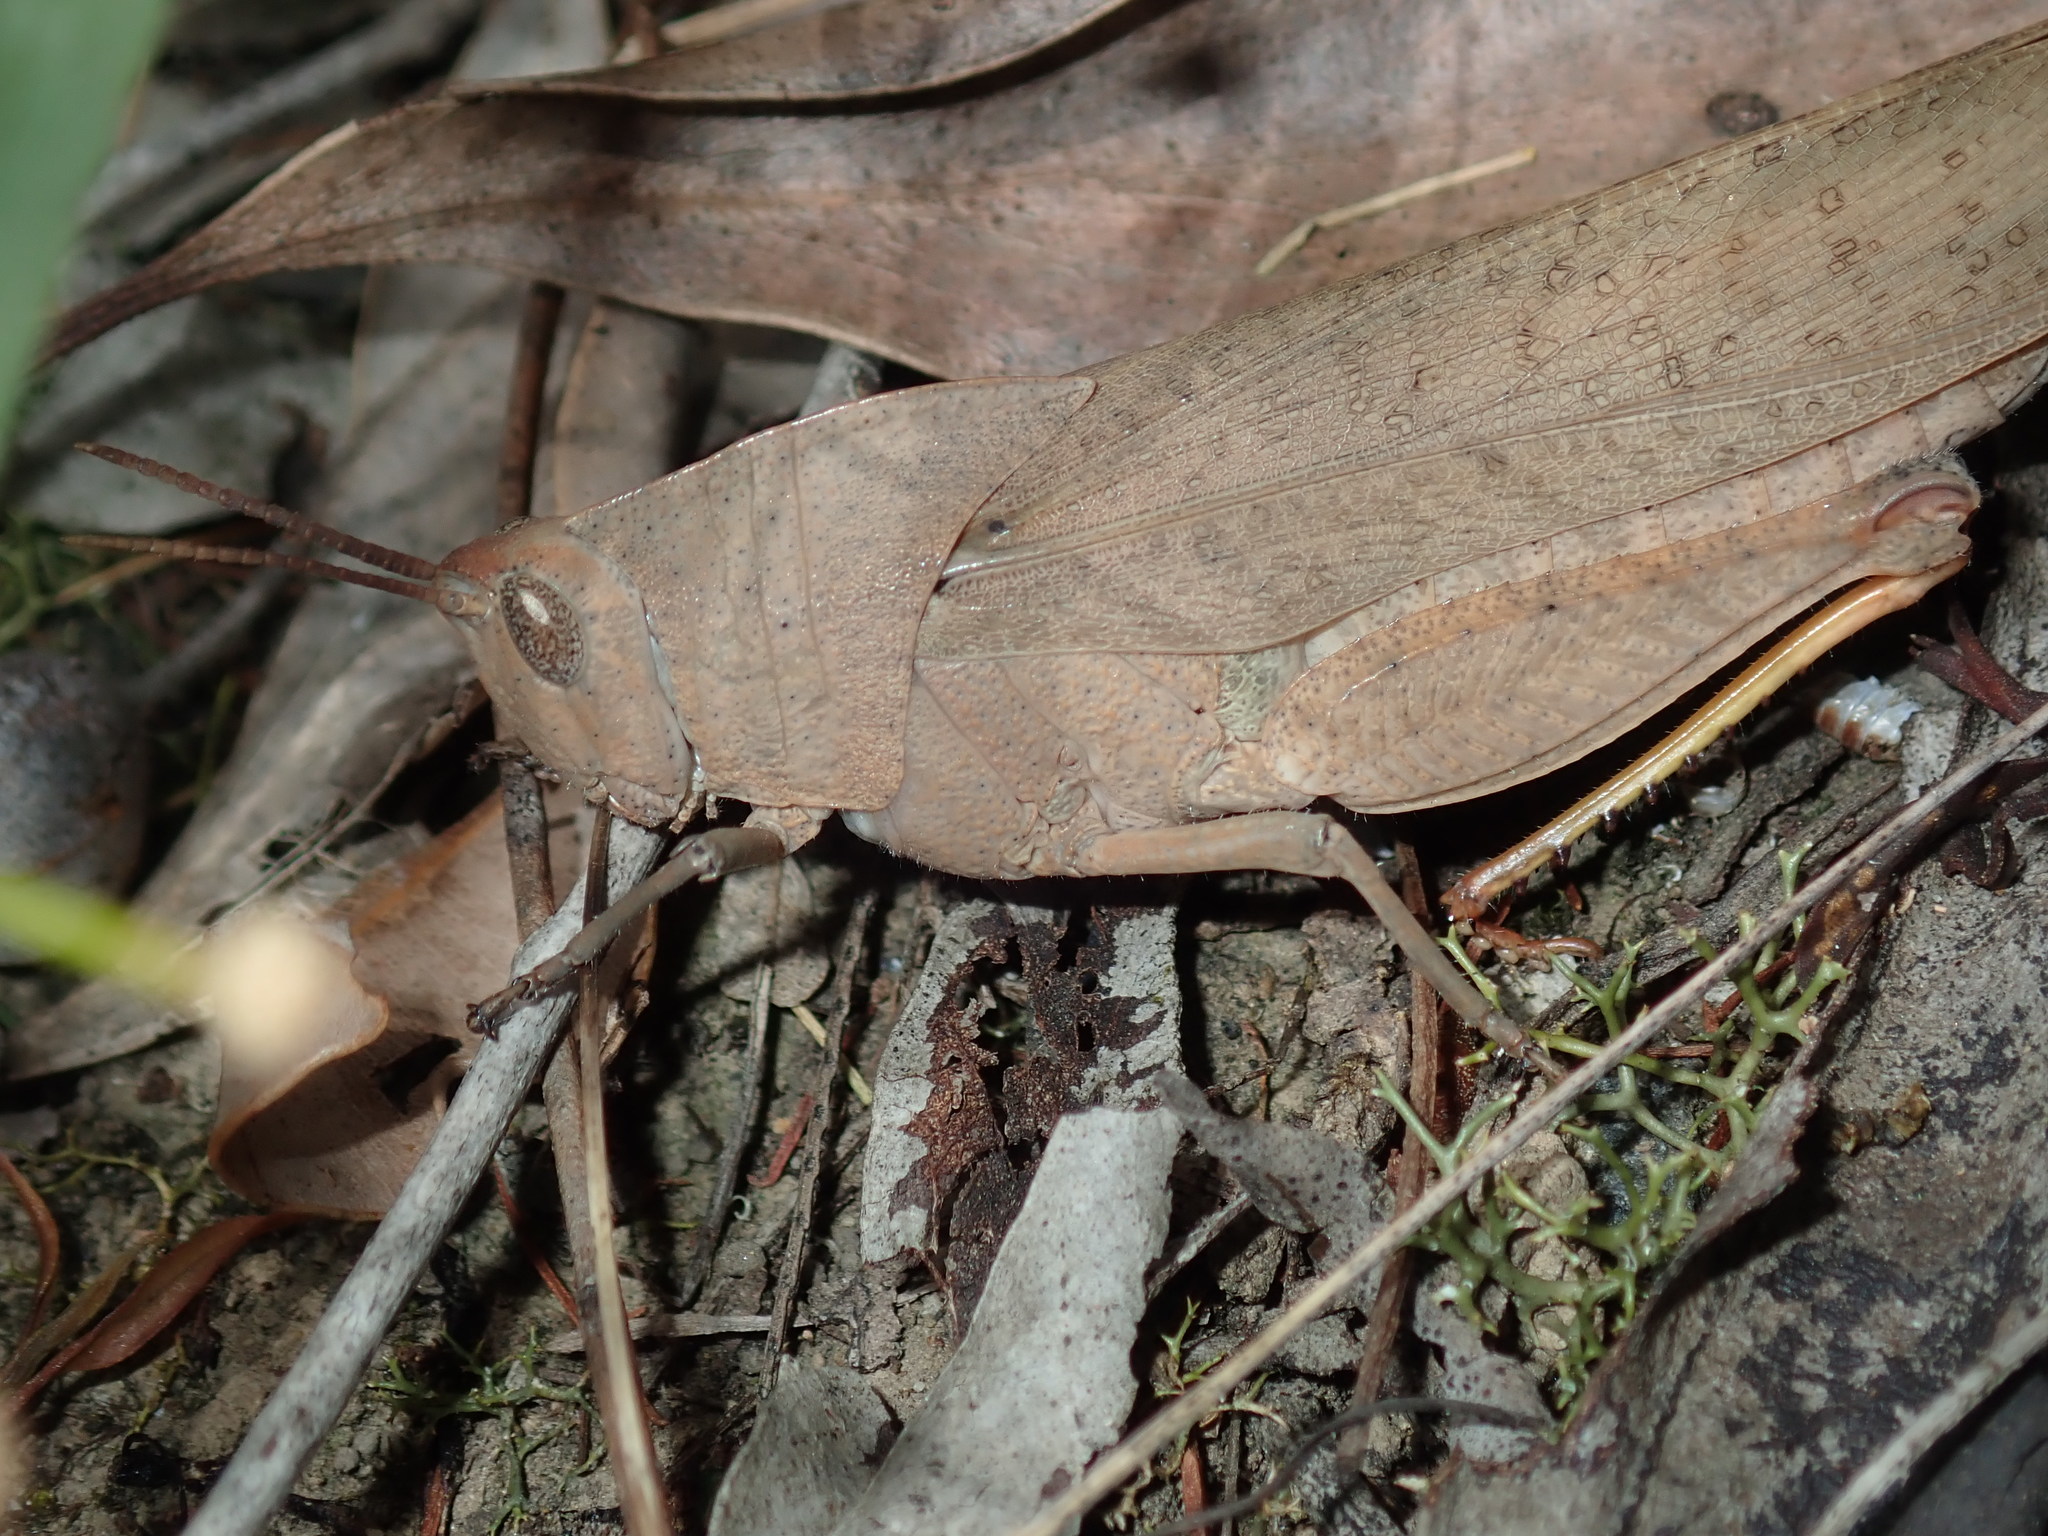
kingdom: Animalia
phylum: Arthropoda
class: Insecta
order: Orthoptera
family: Acrididae
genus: Goniaea
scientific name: Goniaea australasiae
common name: Gumleaf grasshopper
